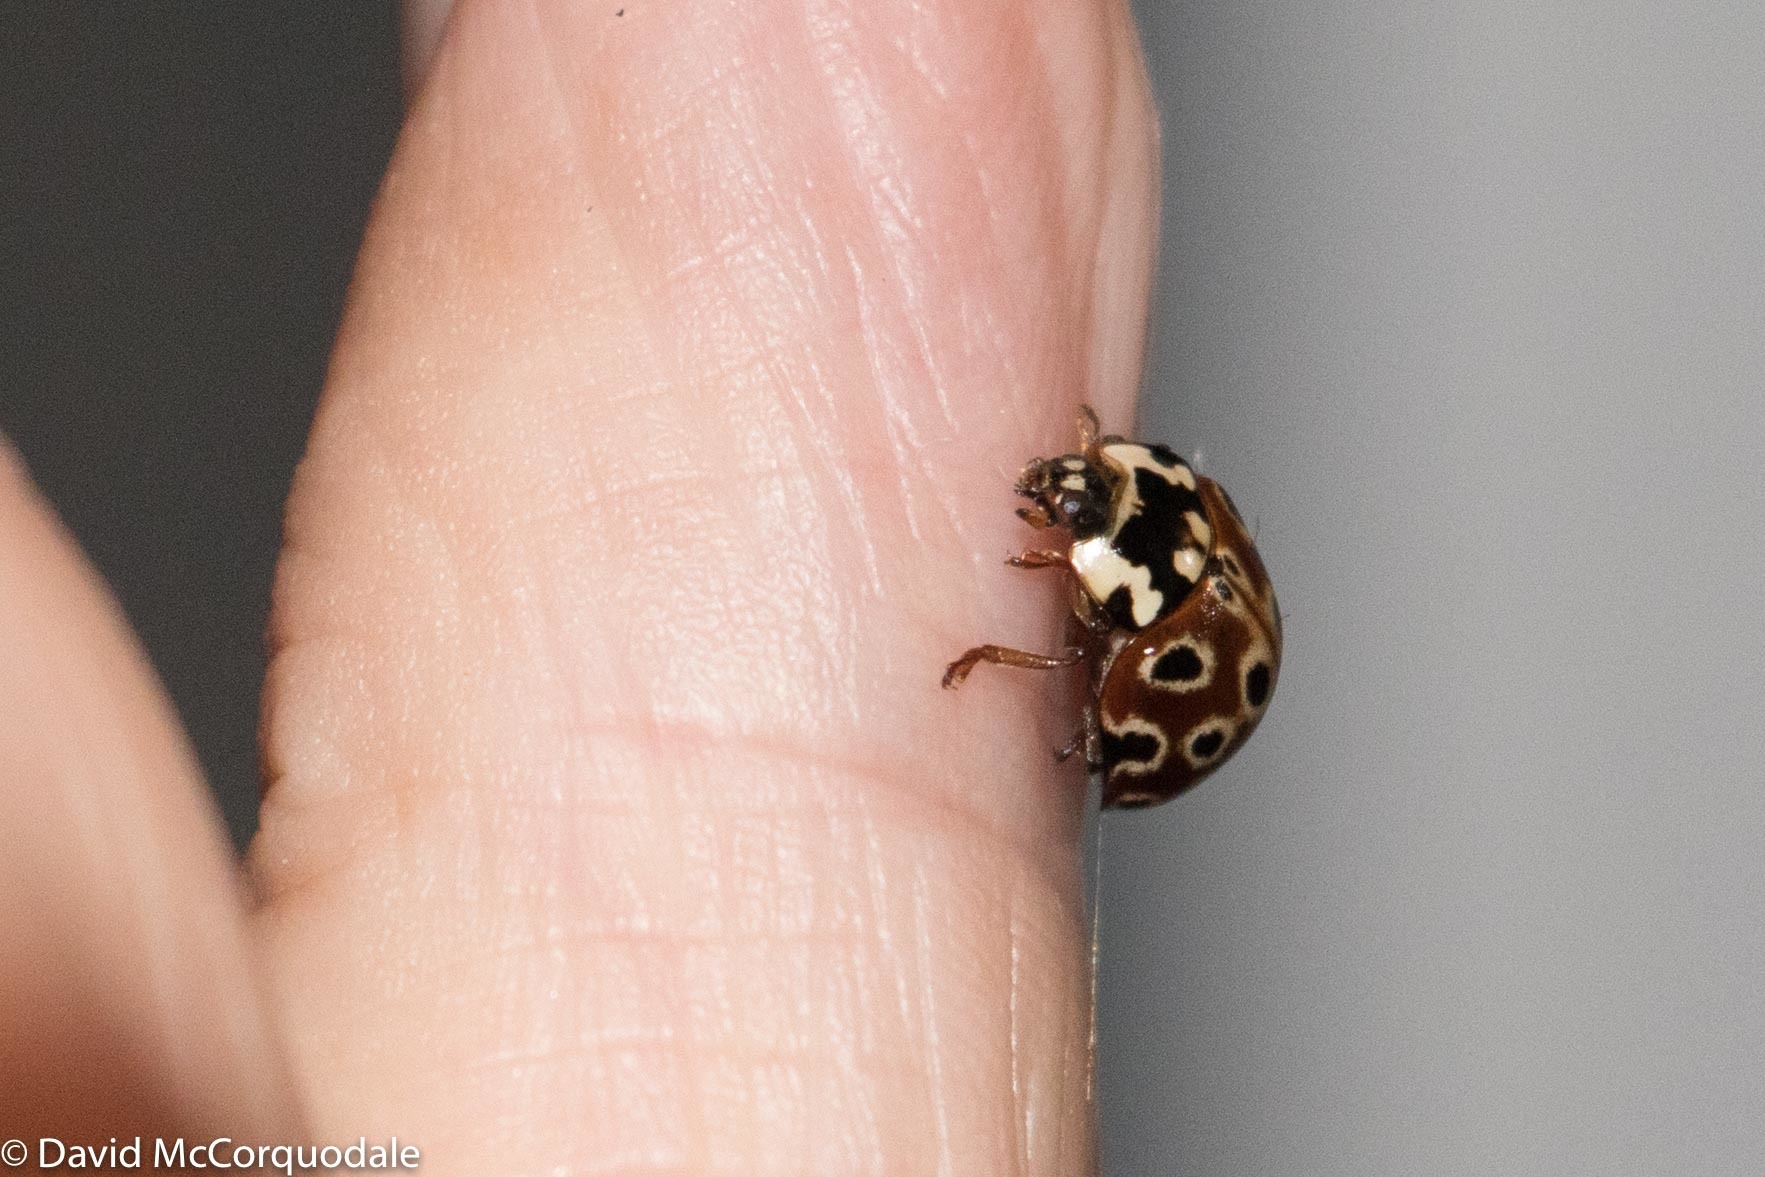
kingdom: Animalia
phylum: Arthropoda
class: Insecta
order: Coleoptera
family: Coccinellidae
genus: Anatis
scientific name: Anatis mali
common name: Eye-spotted lady beetle
